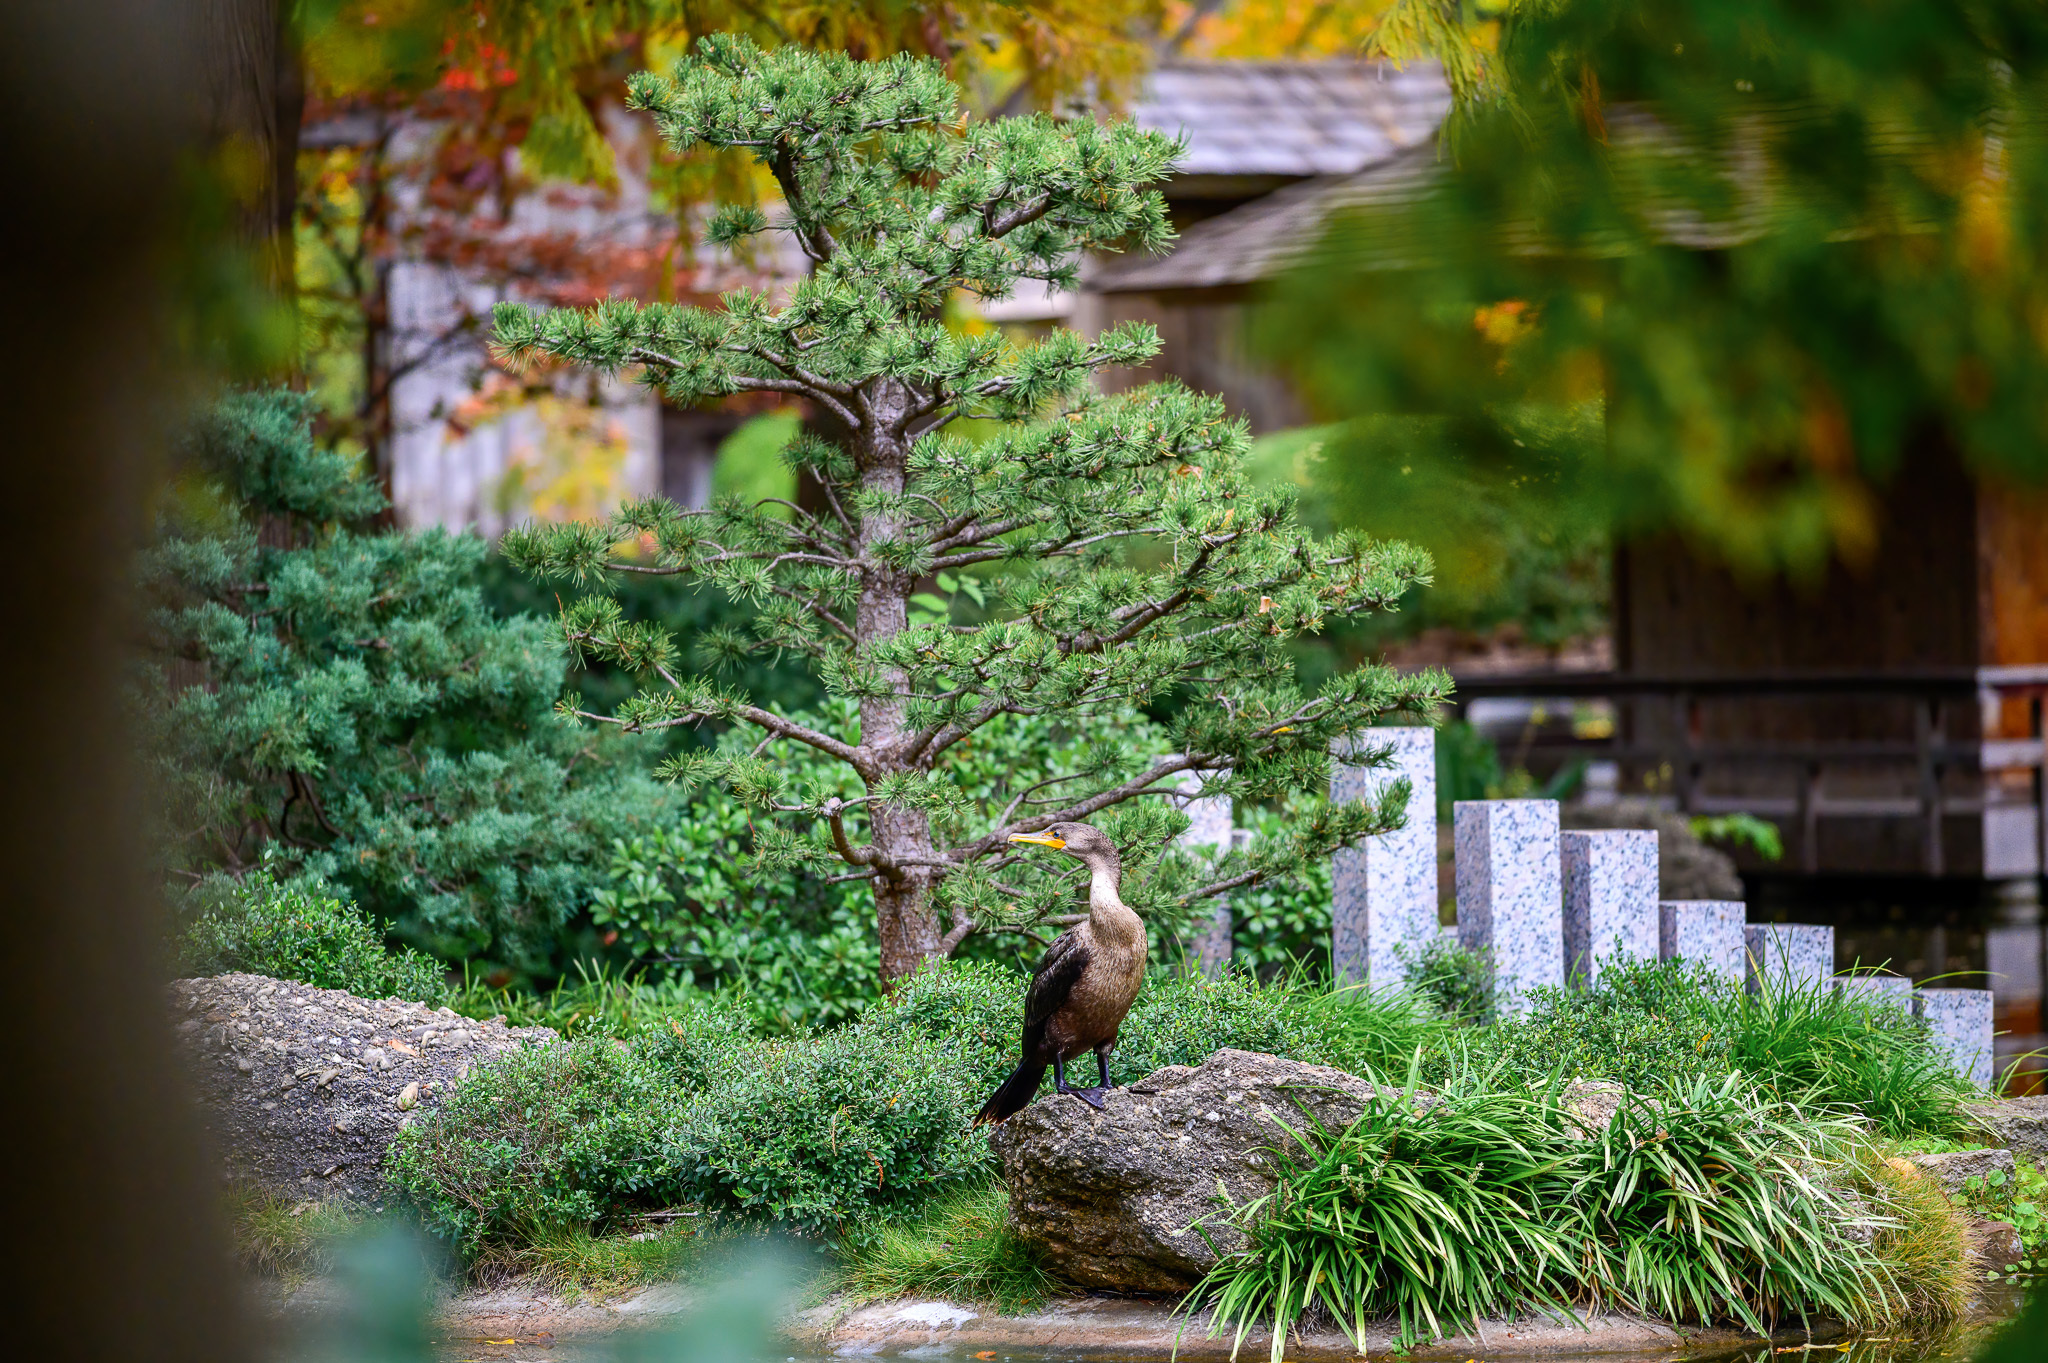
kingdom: Animalia
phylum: Chordata
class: Aves
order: Suliformes
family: Phalacrocoracidae
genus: Phalacrocorax
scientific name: Phalacrocorax auritus
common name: Double-crested cormorant
